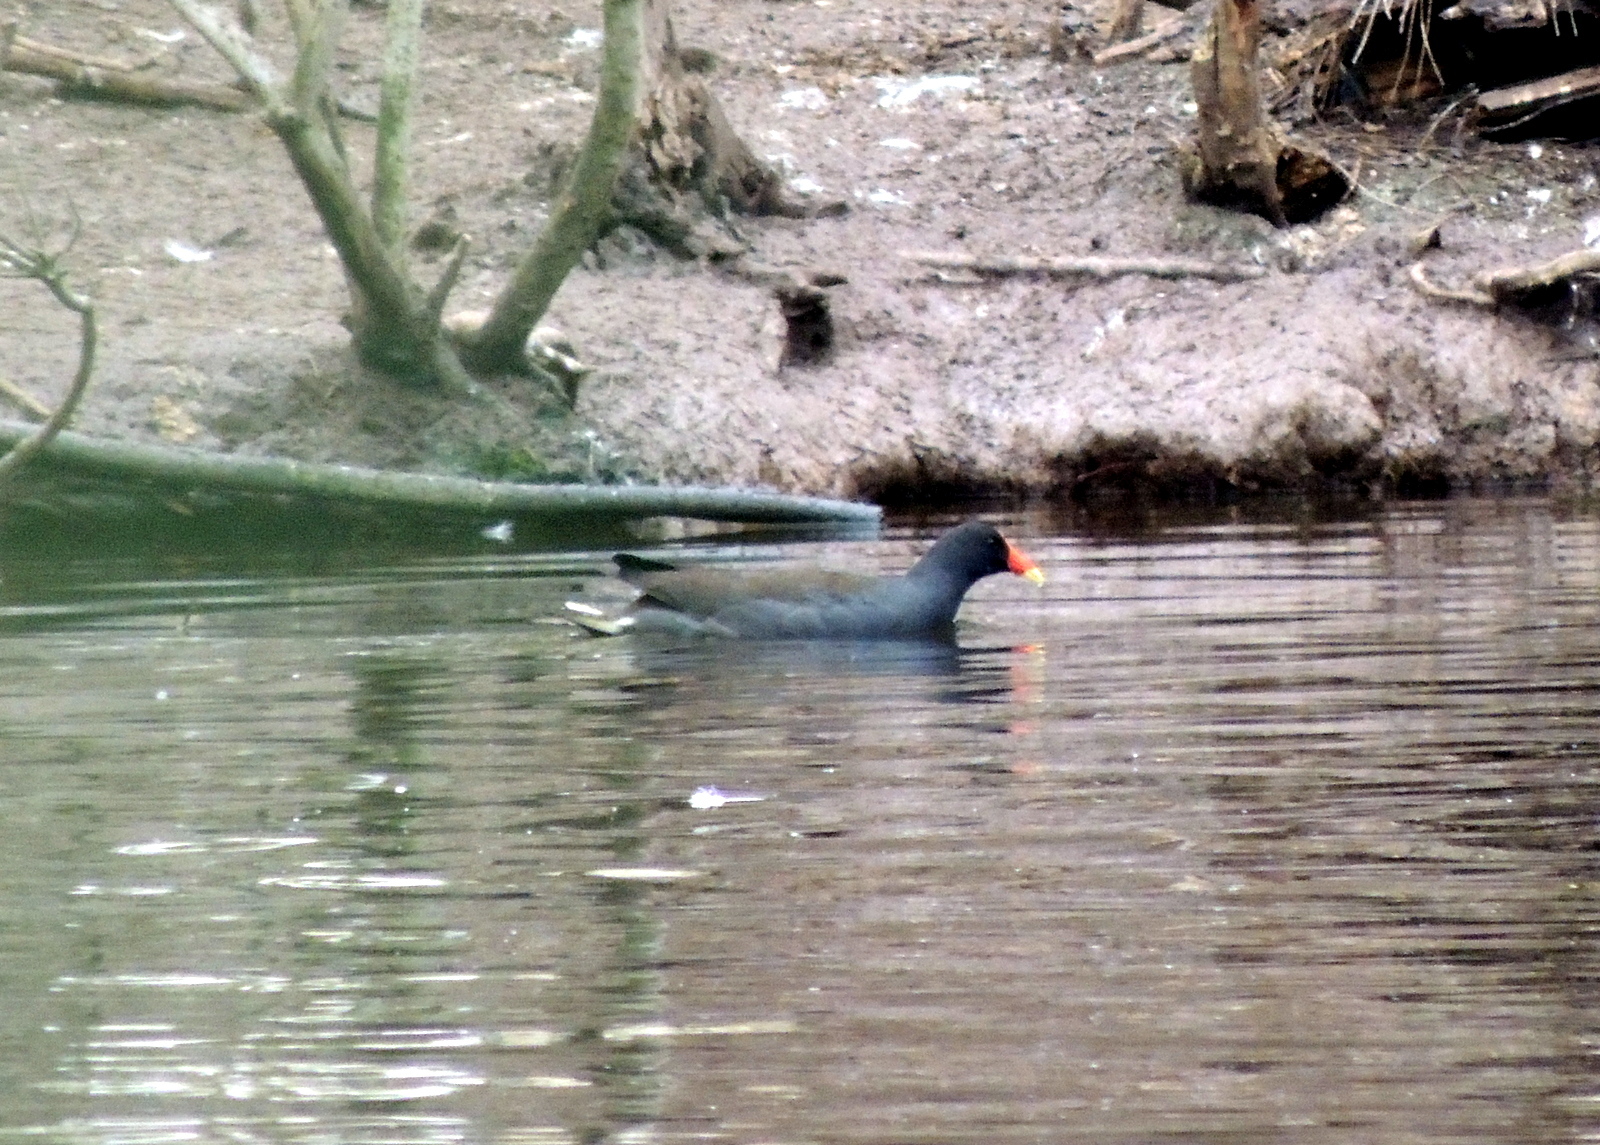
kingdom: Animalia
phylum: Chordata
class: Aves
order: Gruiformes
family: Rallidae
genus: Gallinula
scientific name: Gallinula tenebrosa
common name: Dusky moorhen
